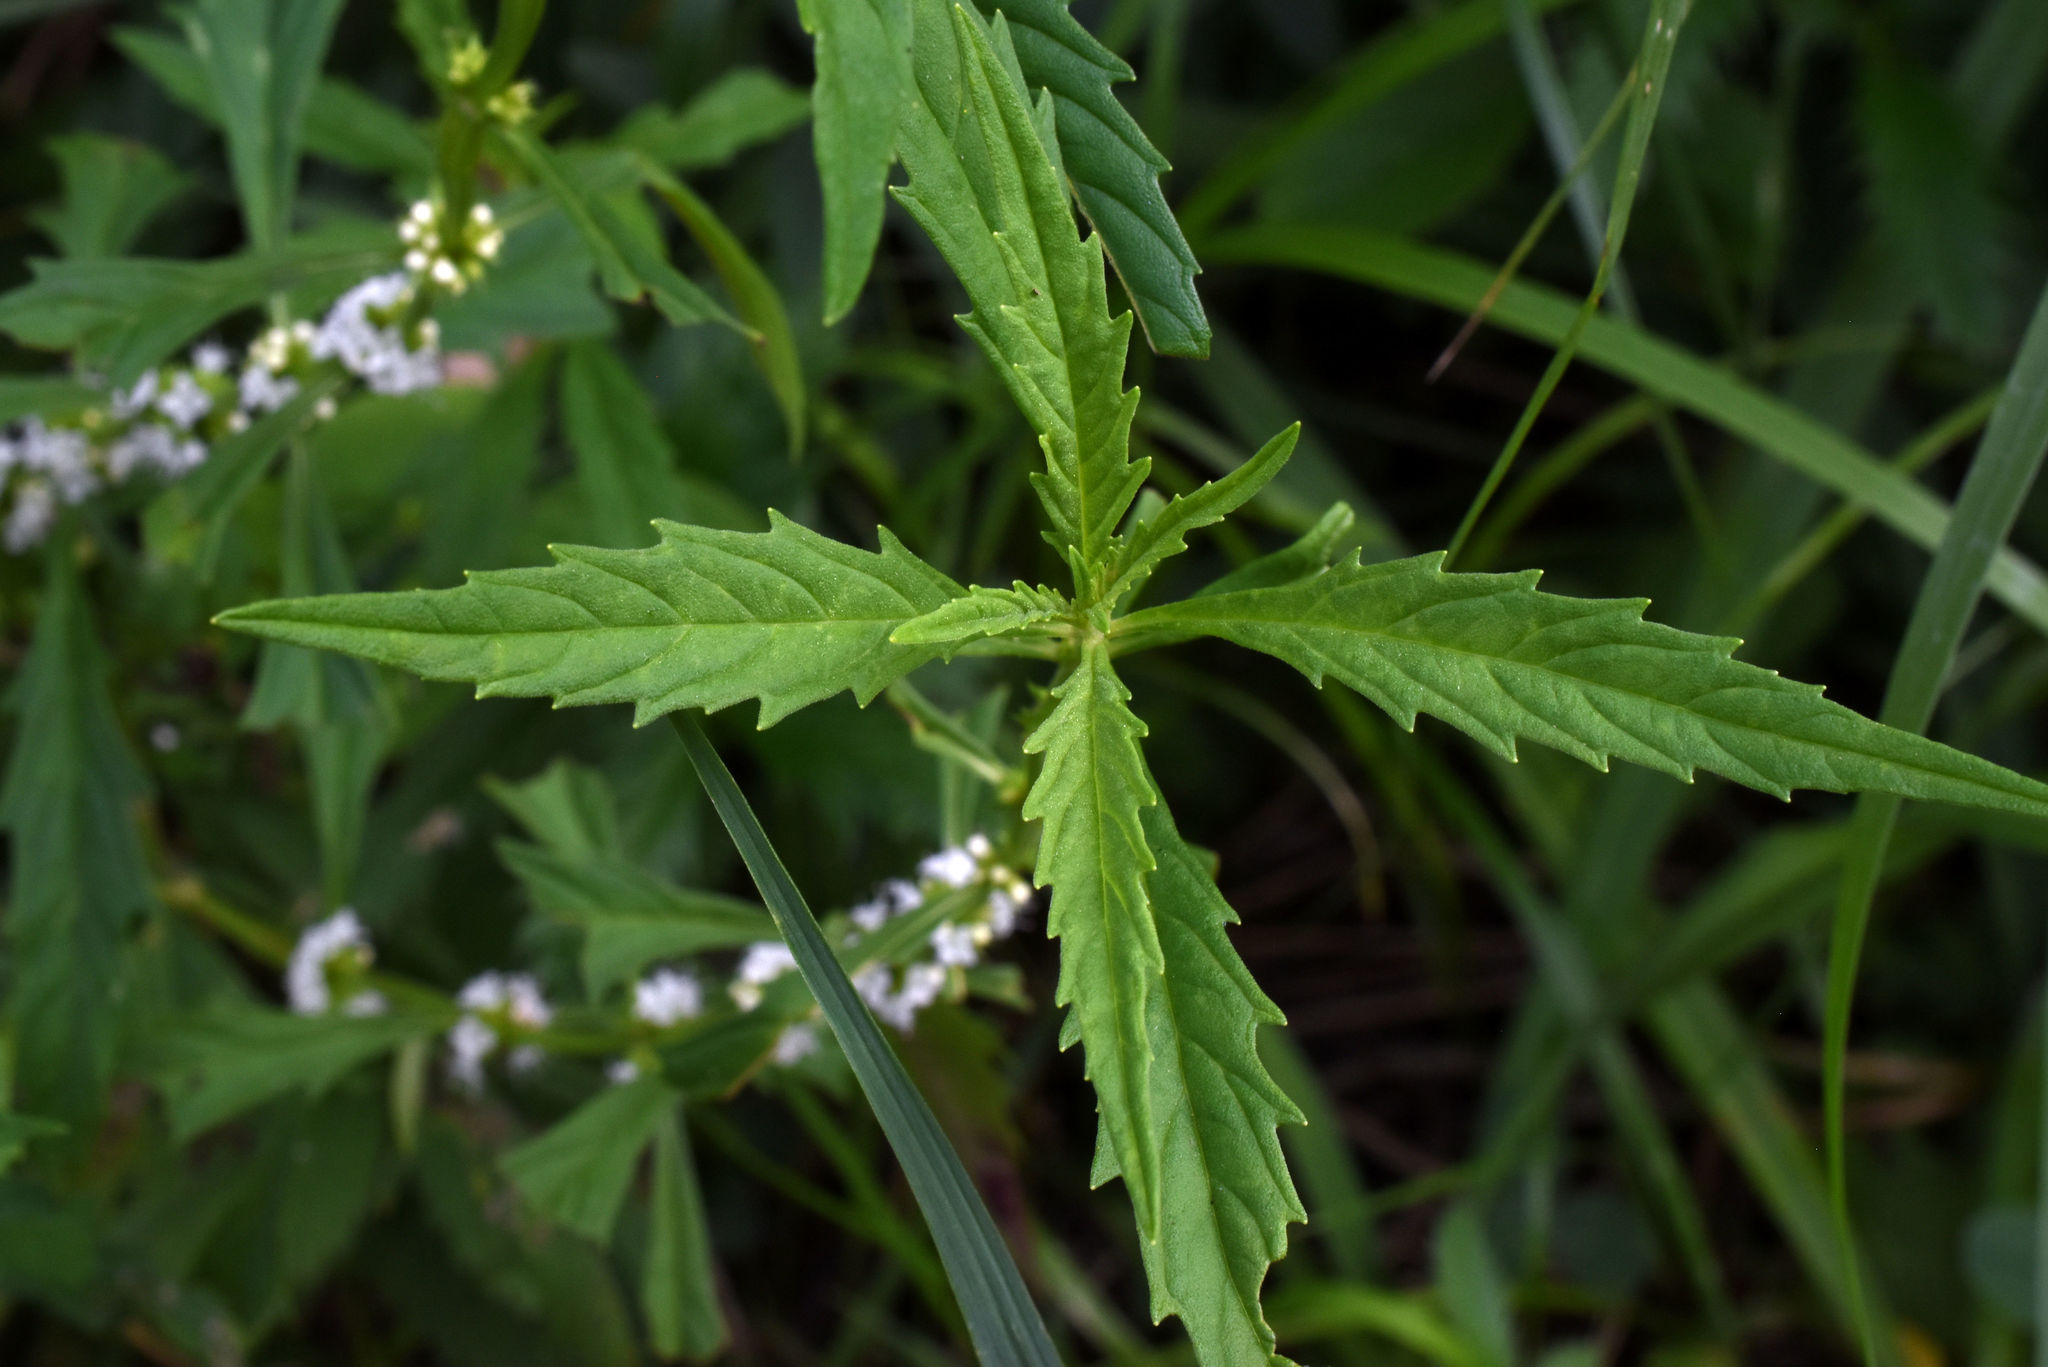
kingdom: Plantae
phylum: Tracheophyta
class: Magnoliopsida
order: Lamiales
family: Lamiaceae
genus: Lycopus
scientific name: Lycopus americanus
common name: American bugleweed
